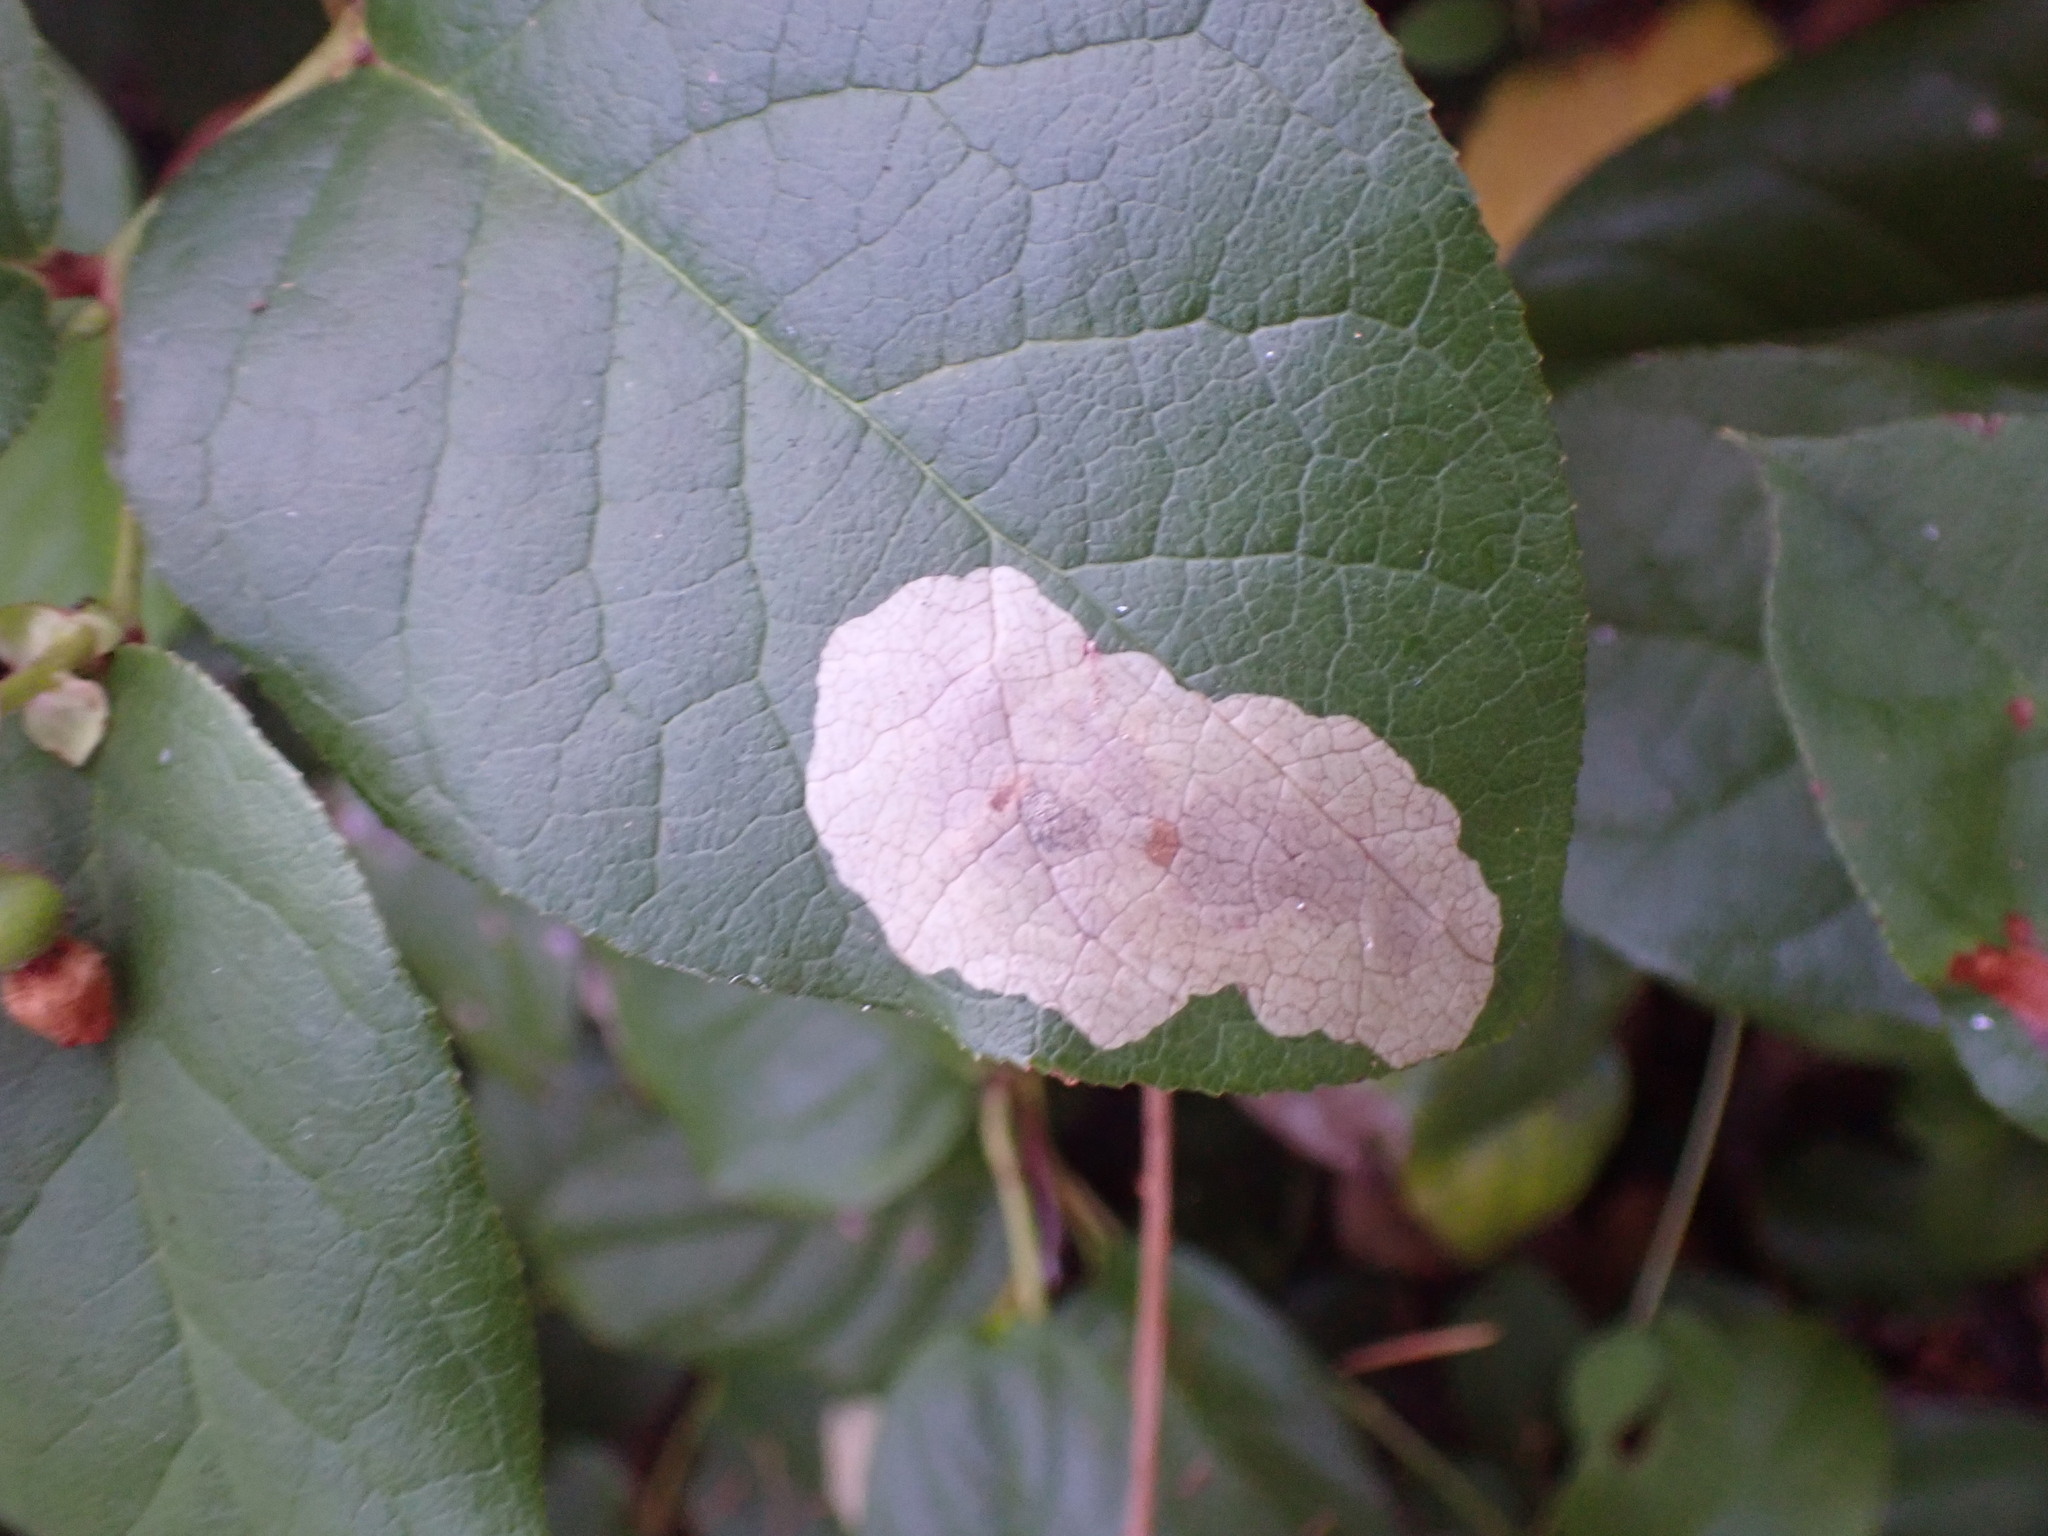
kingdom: Animalia
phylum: Arthropoda
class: Insecta
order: Lepidoptera
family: Gracillariidae
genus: Cameraria
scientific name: Cameraria gaultheriella
